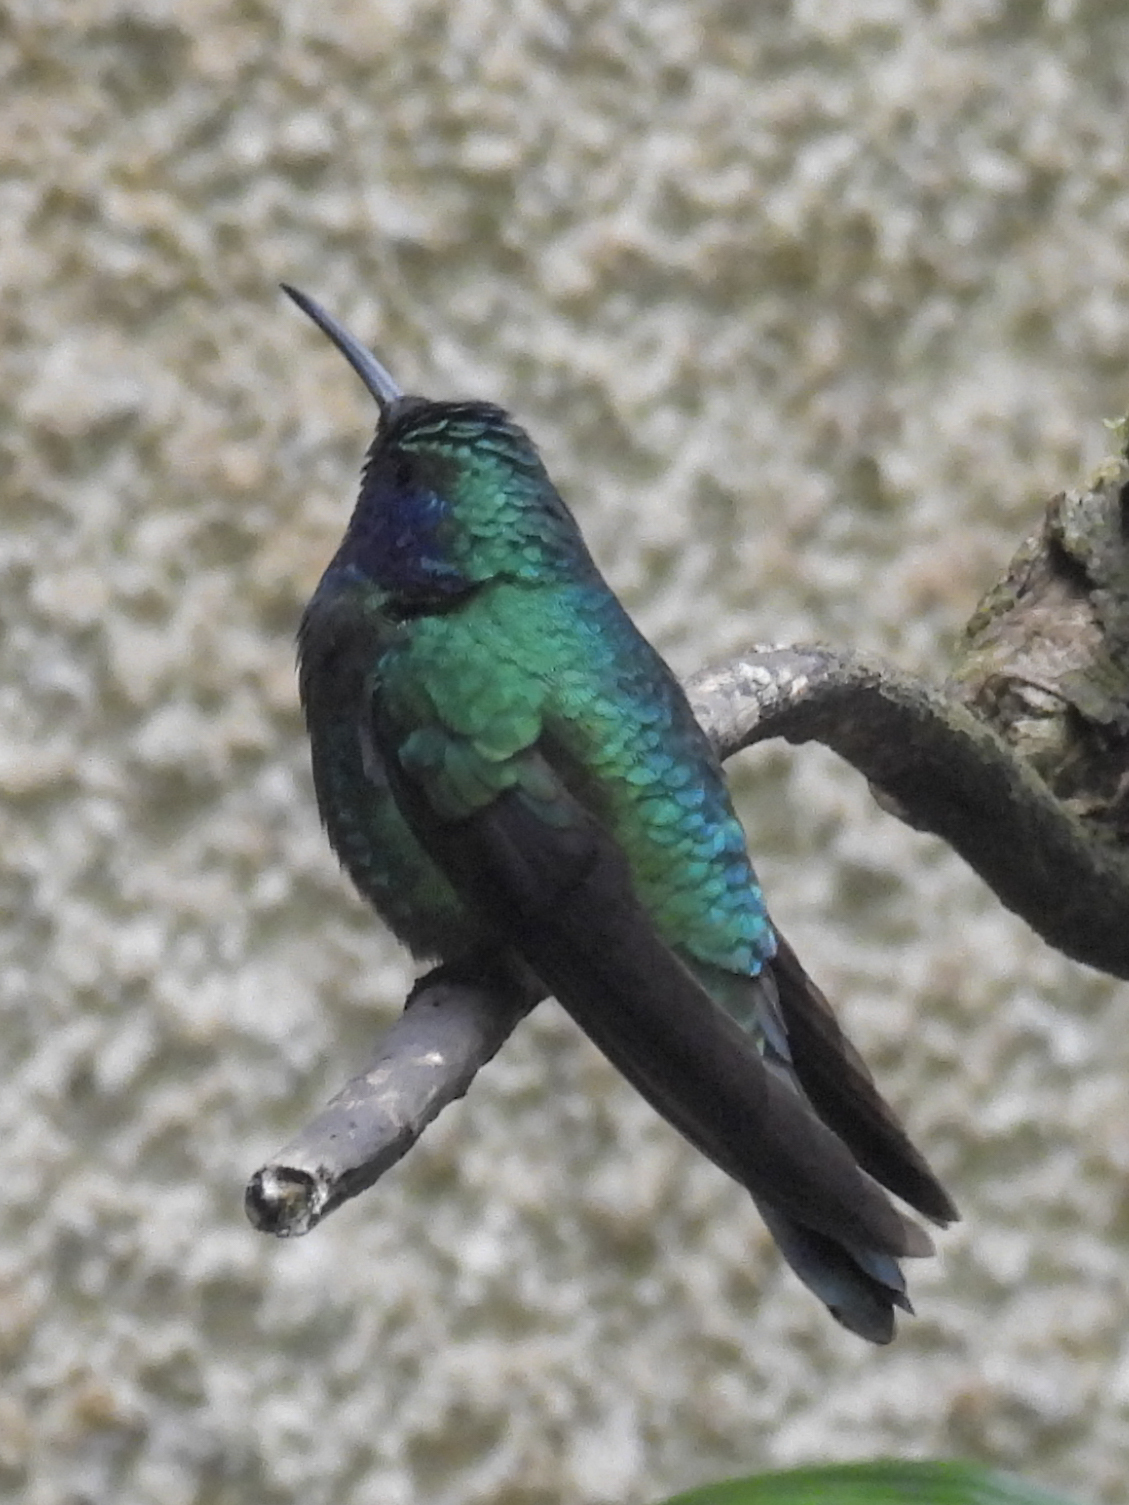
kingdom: Animalia
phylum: Chordata
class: Aves
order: Apodiformes
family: Trochilidae
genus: Colibri
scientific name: Colibri cyanotus
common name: Lesser violetear
